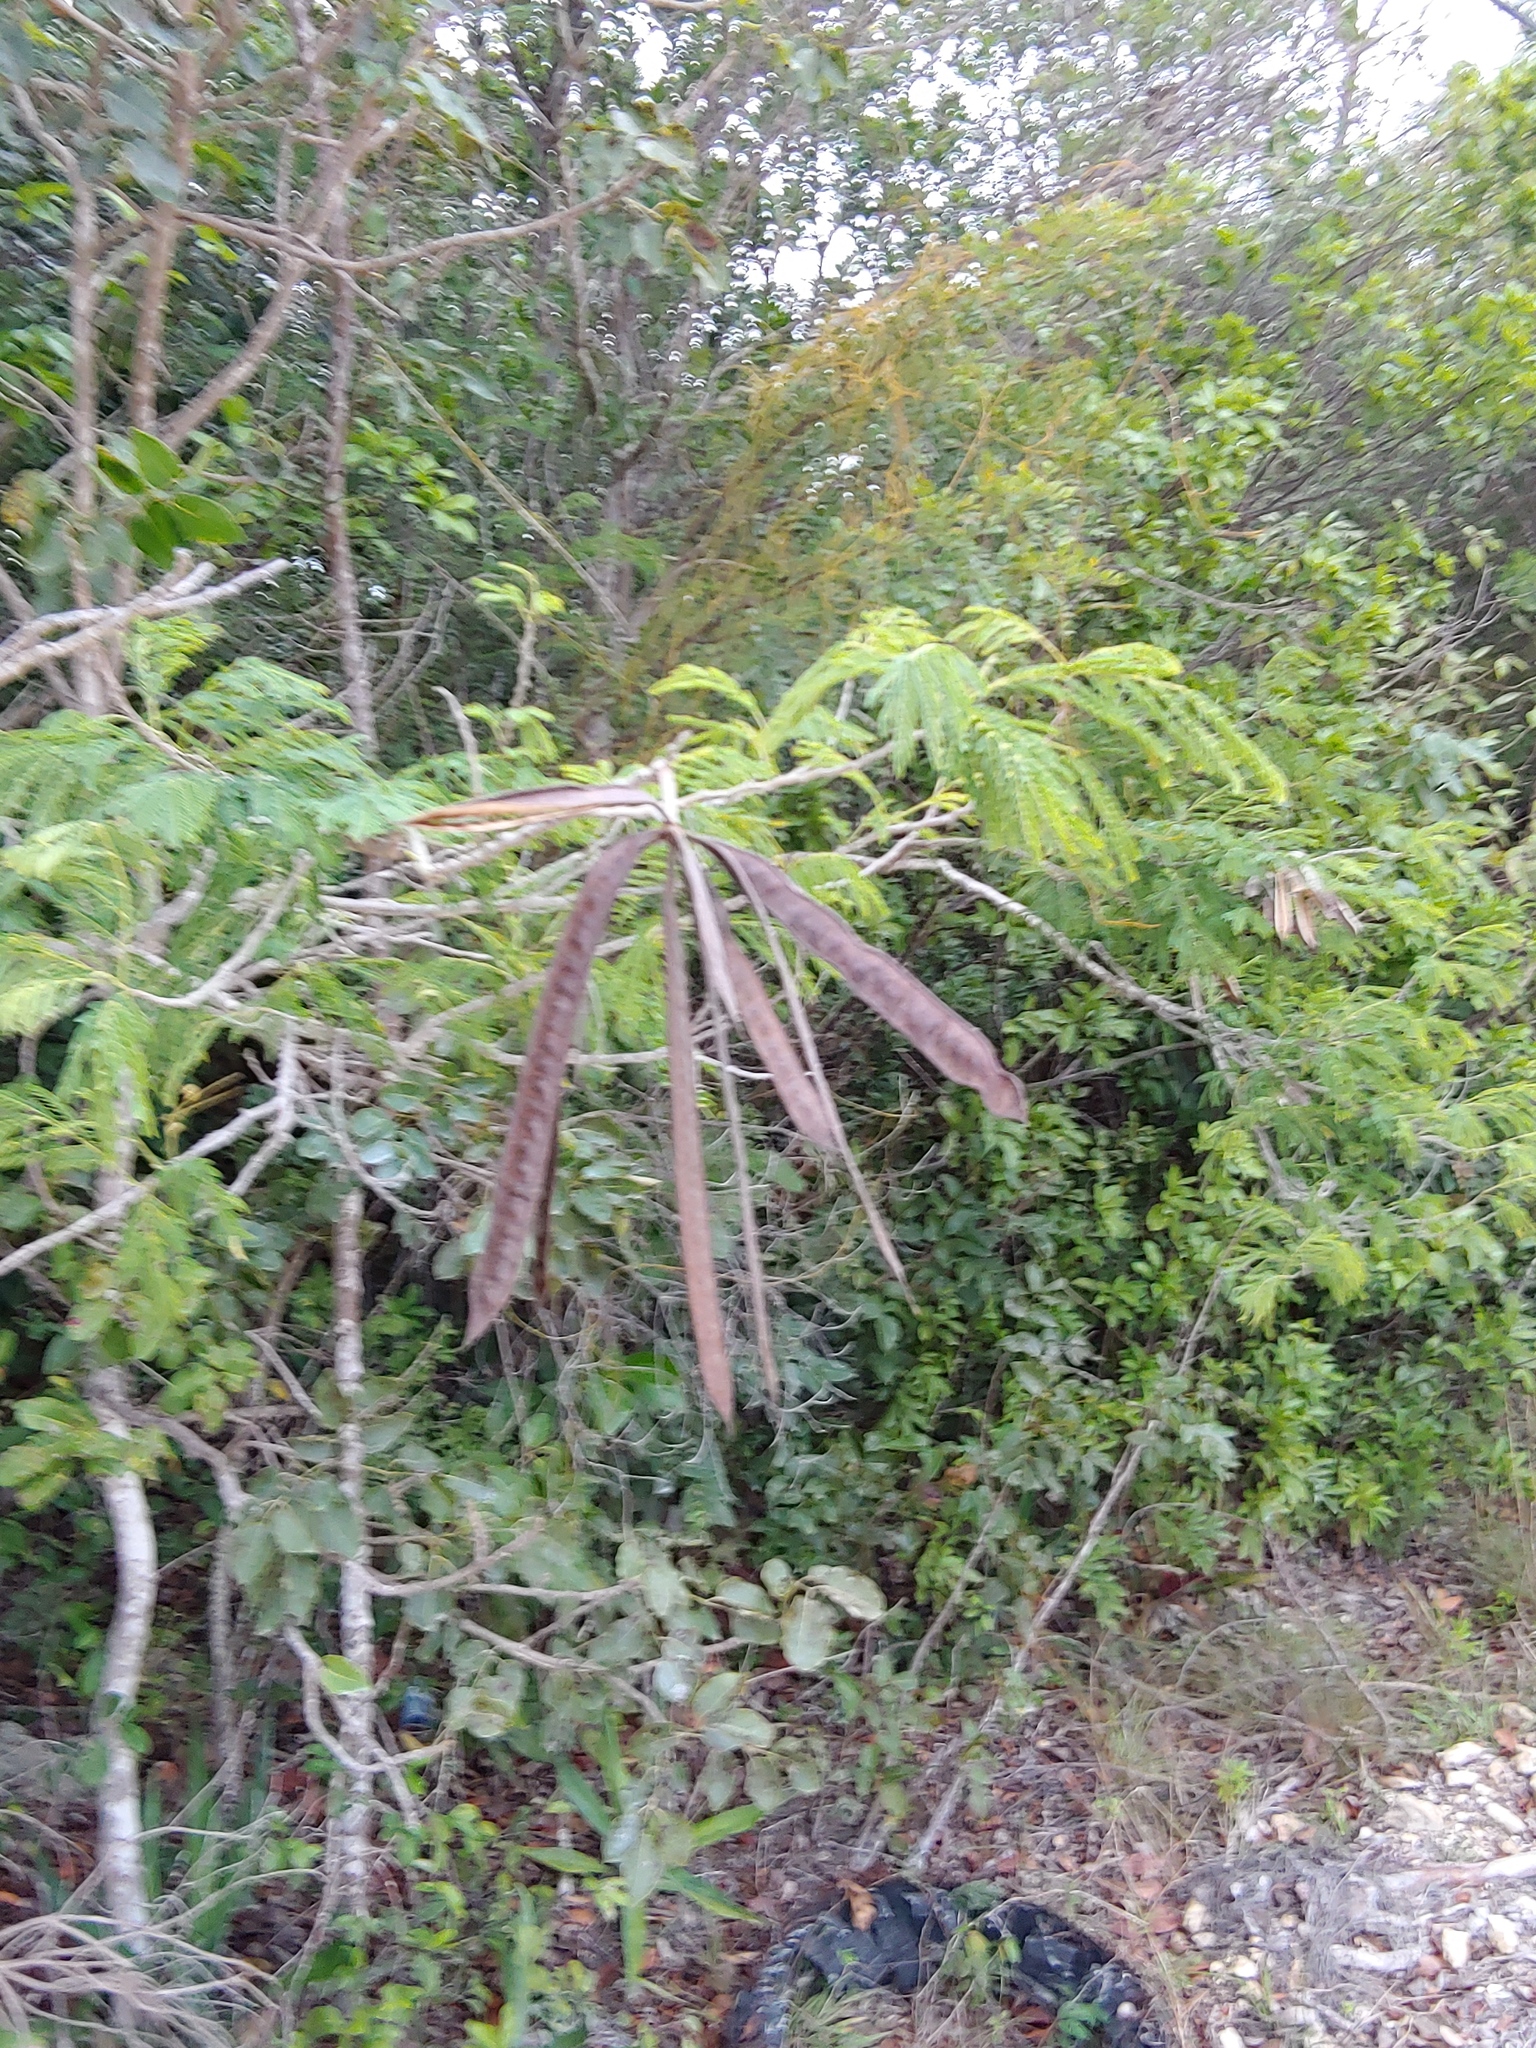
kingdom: Plantae
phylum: Tracheophyta
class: Magnoliopsida
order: Fabales
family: Fabaceae
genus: Leucaena
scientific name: Leucaena leucocephala
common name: White leadtree
